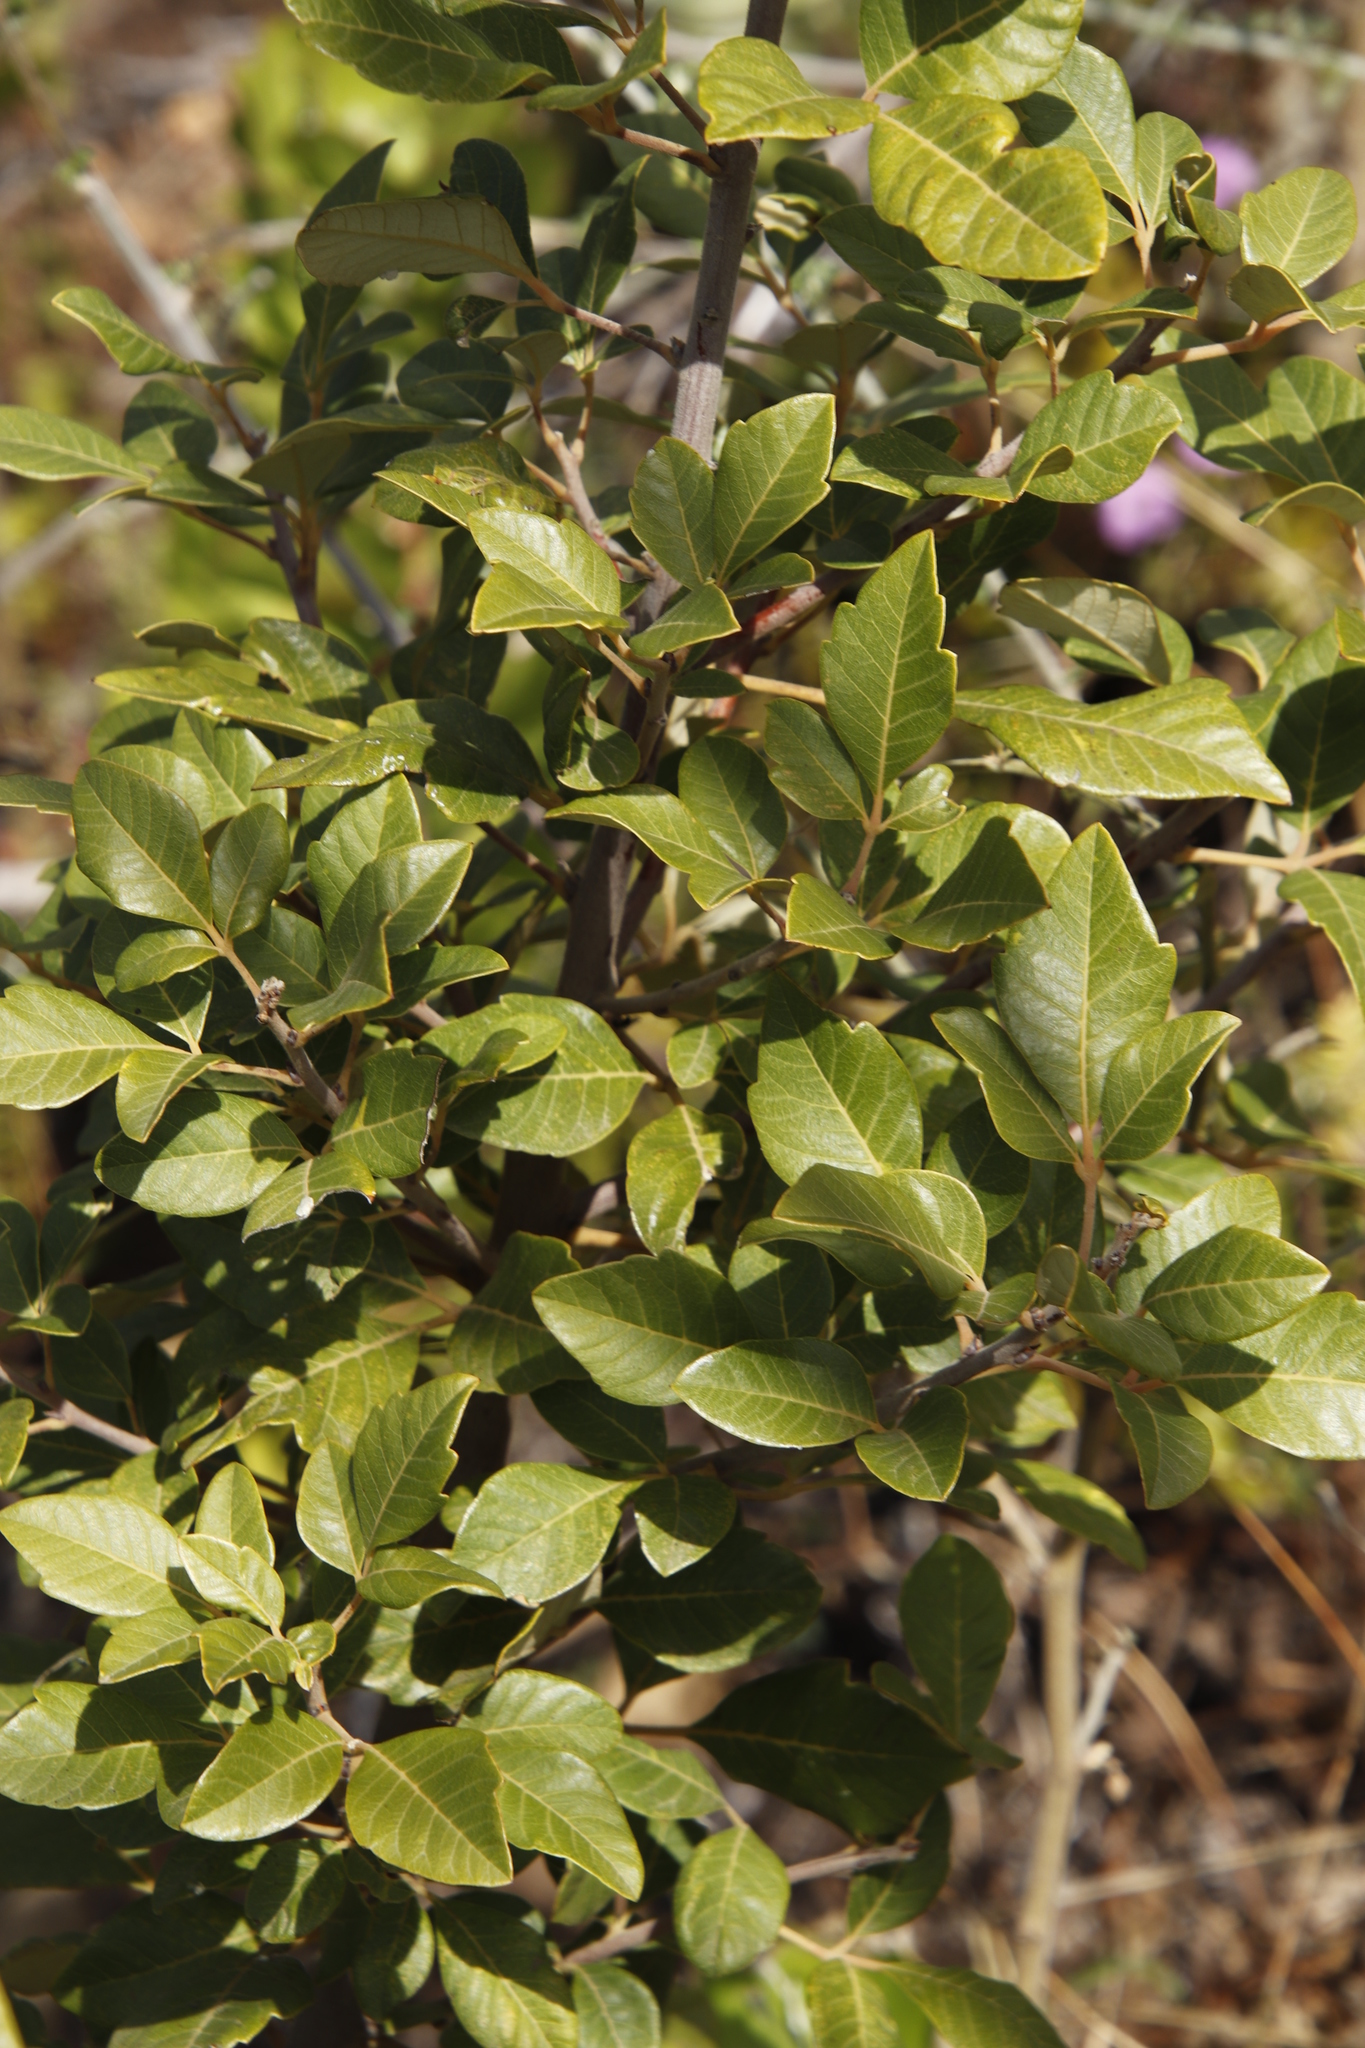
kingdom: Plantae
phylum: Tracheophyta
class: Magnoliopsida
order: Sapindales
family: Anacardiaceae
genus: Searsia
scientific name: Searsia tomentosa
